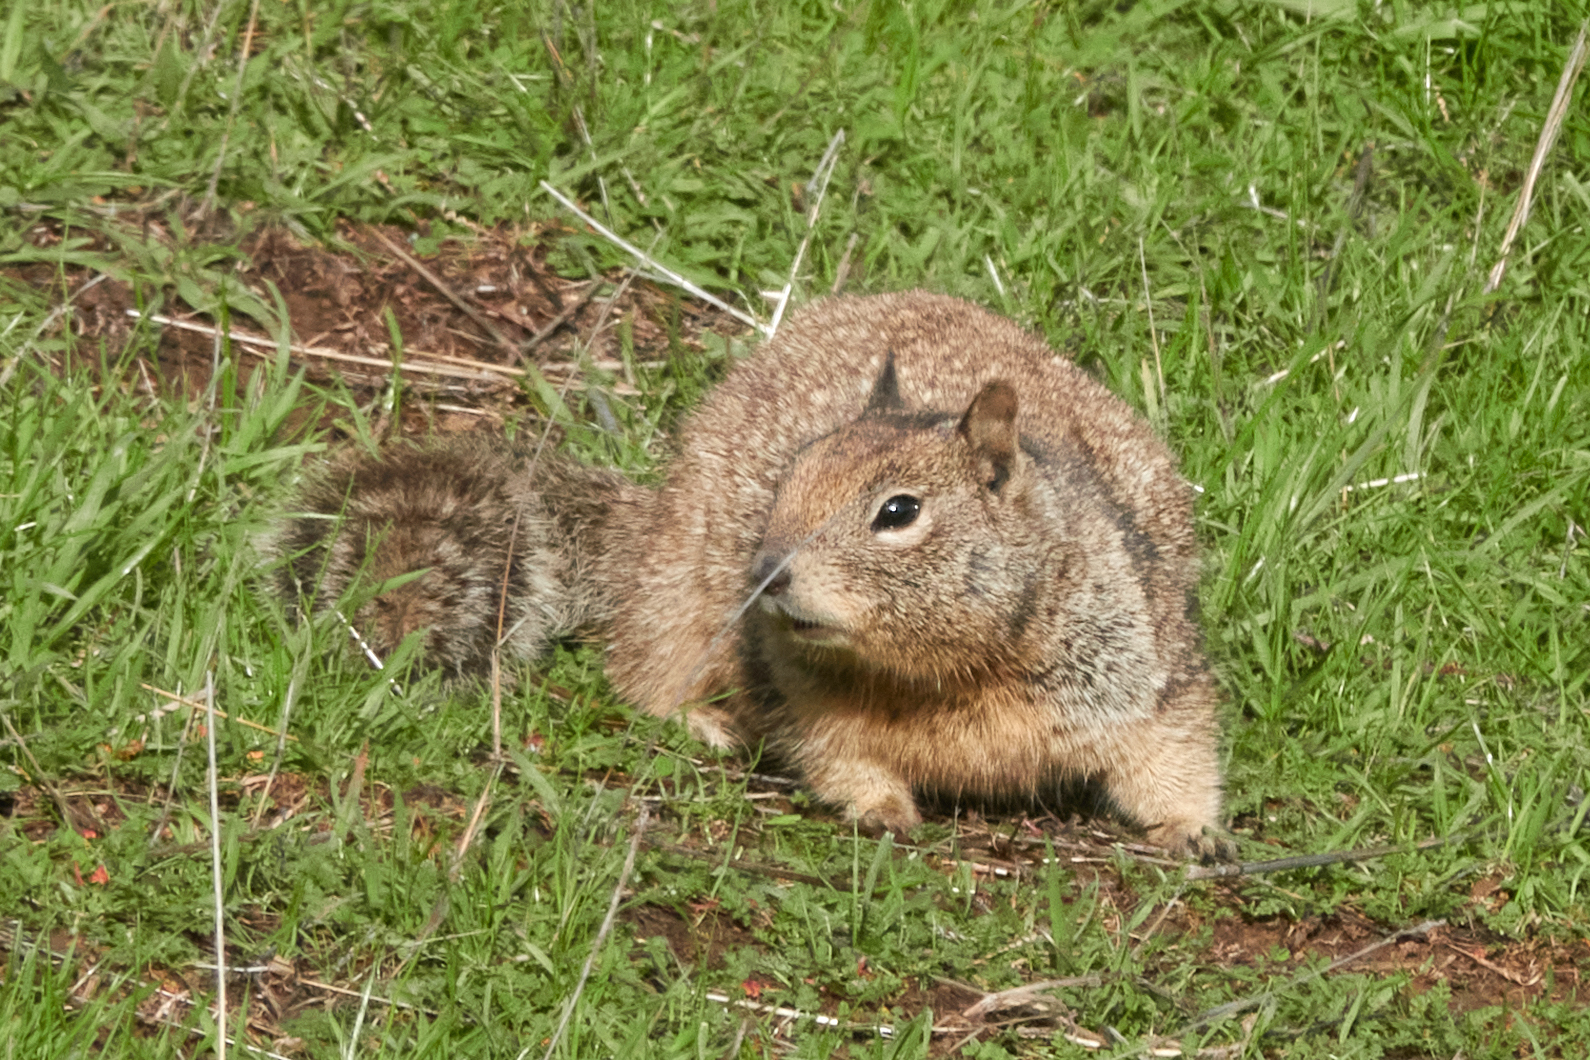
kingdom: Animalia
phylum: Chordata
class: Mammalia
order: Rodentia
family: Sciuridae
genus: Otospermophilus
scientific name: Otospermophilus beecheyi
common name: California ground squirrel
